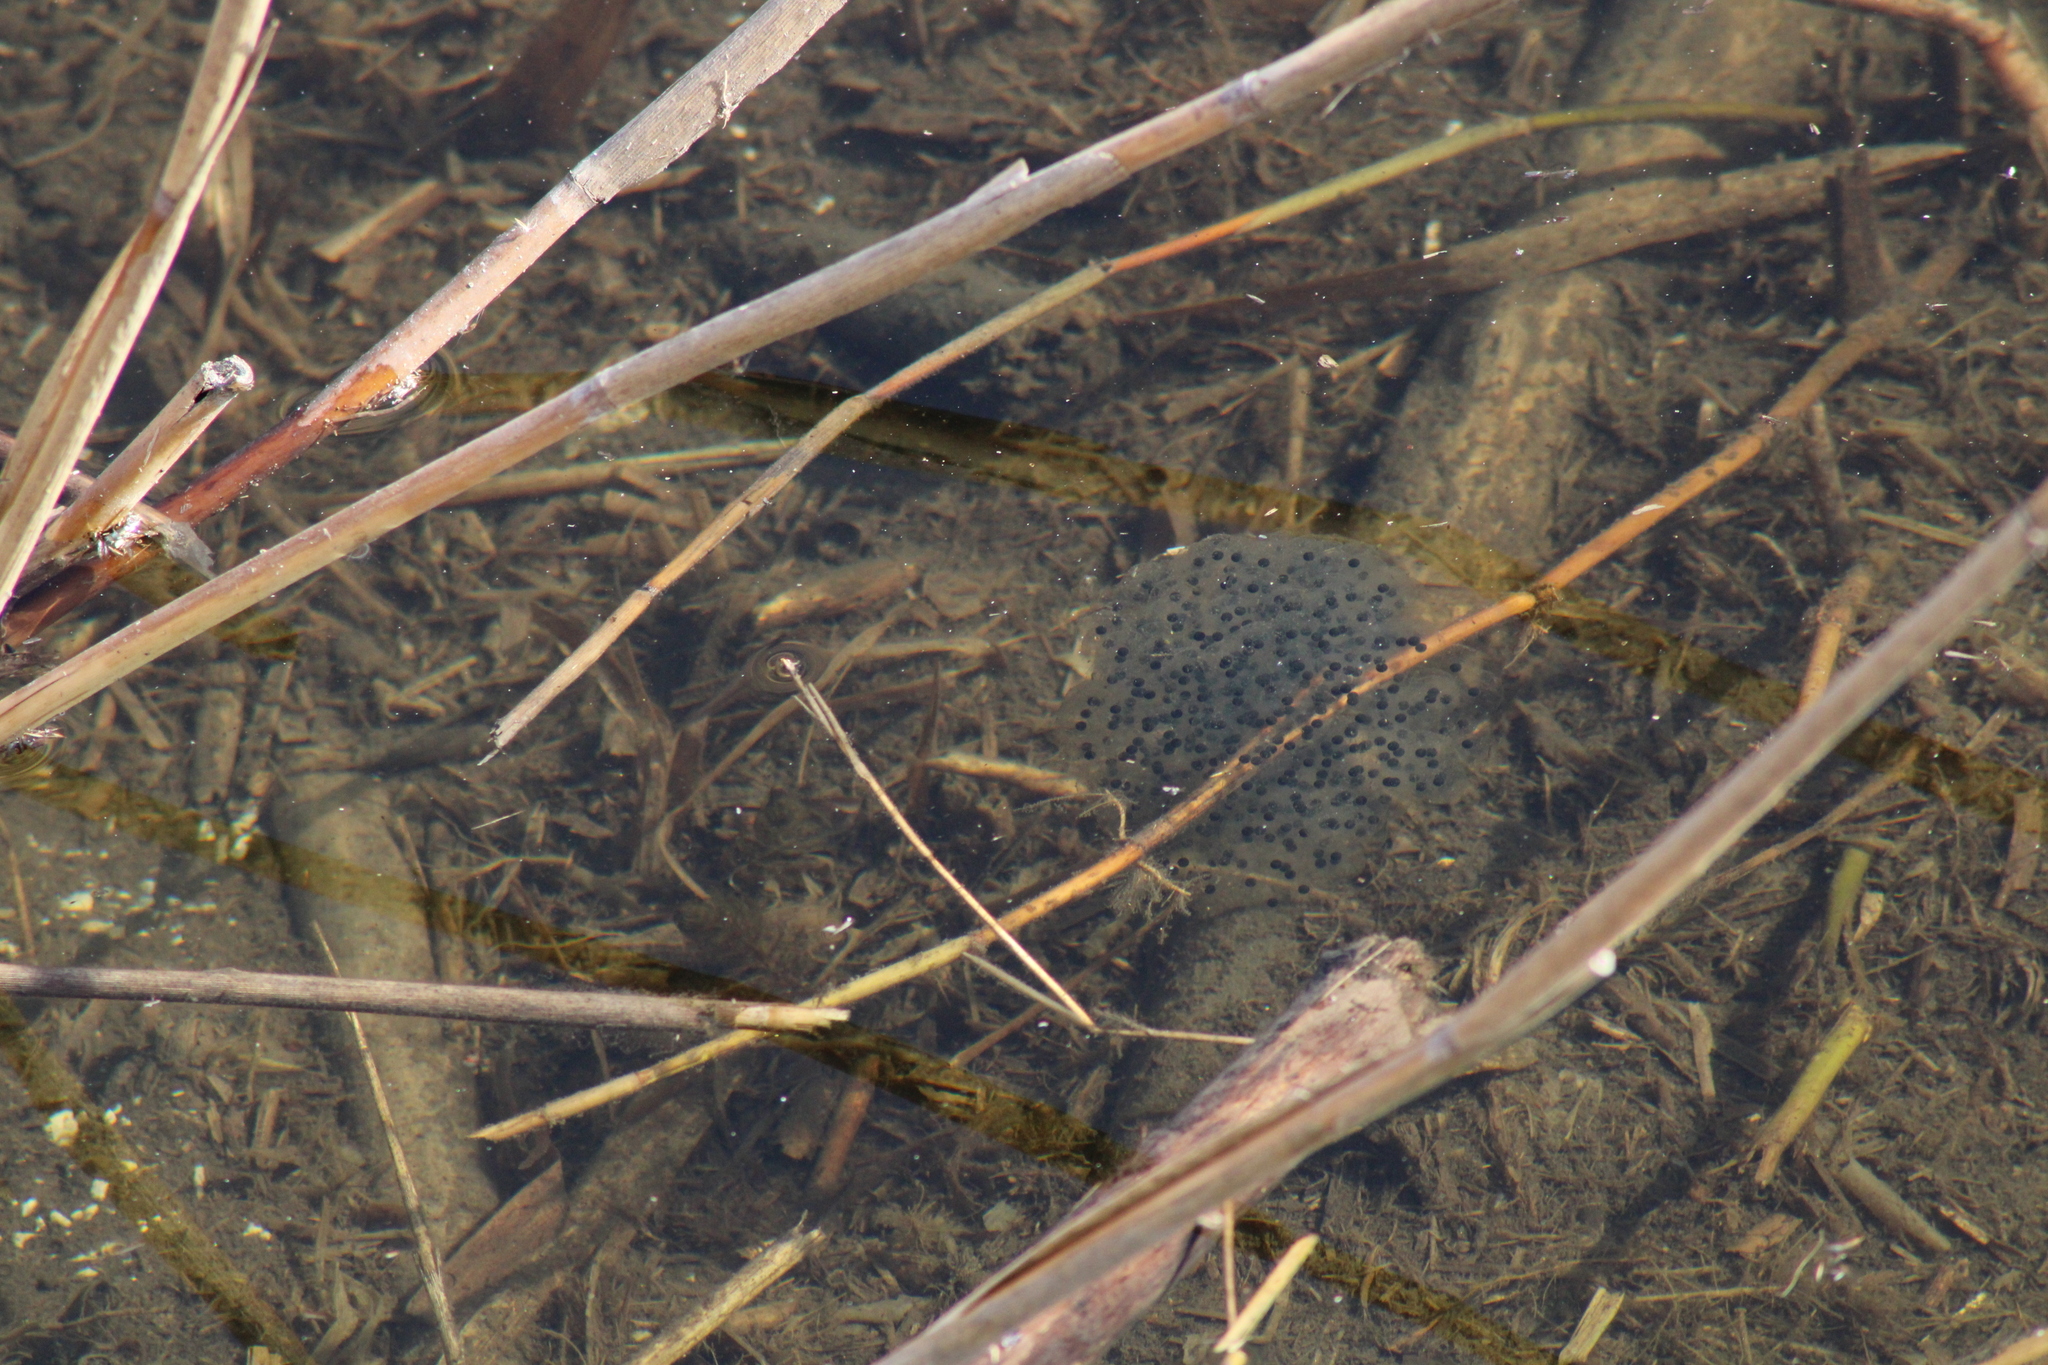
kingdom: Animalia
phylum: Chordata
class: Amphibia
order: Anura
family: Ranidae
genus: Rana
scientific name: Rana dalmatina
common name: Agile frog
